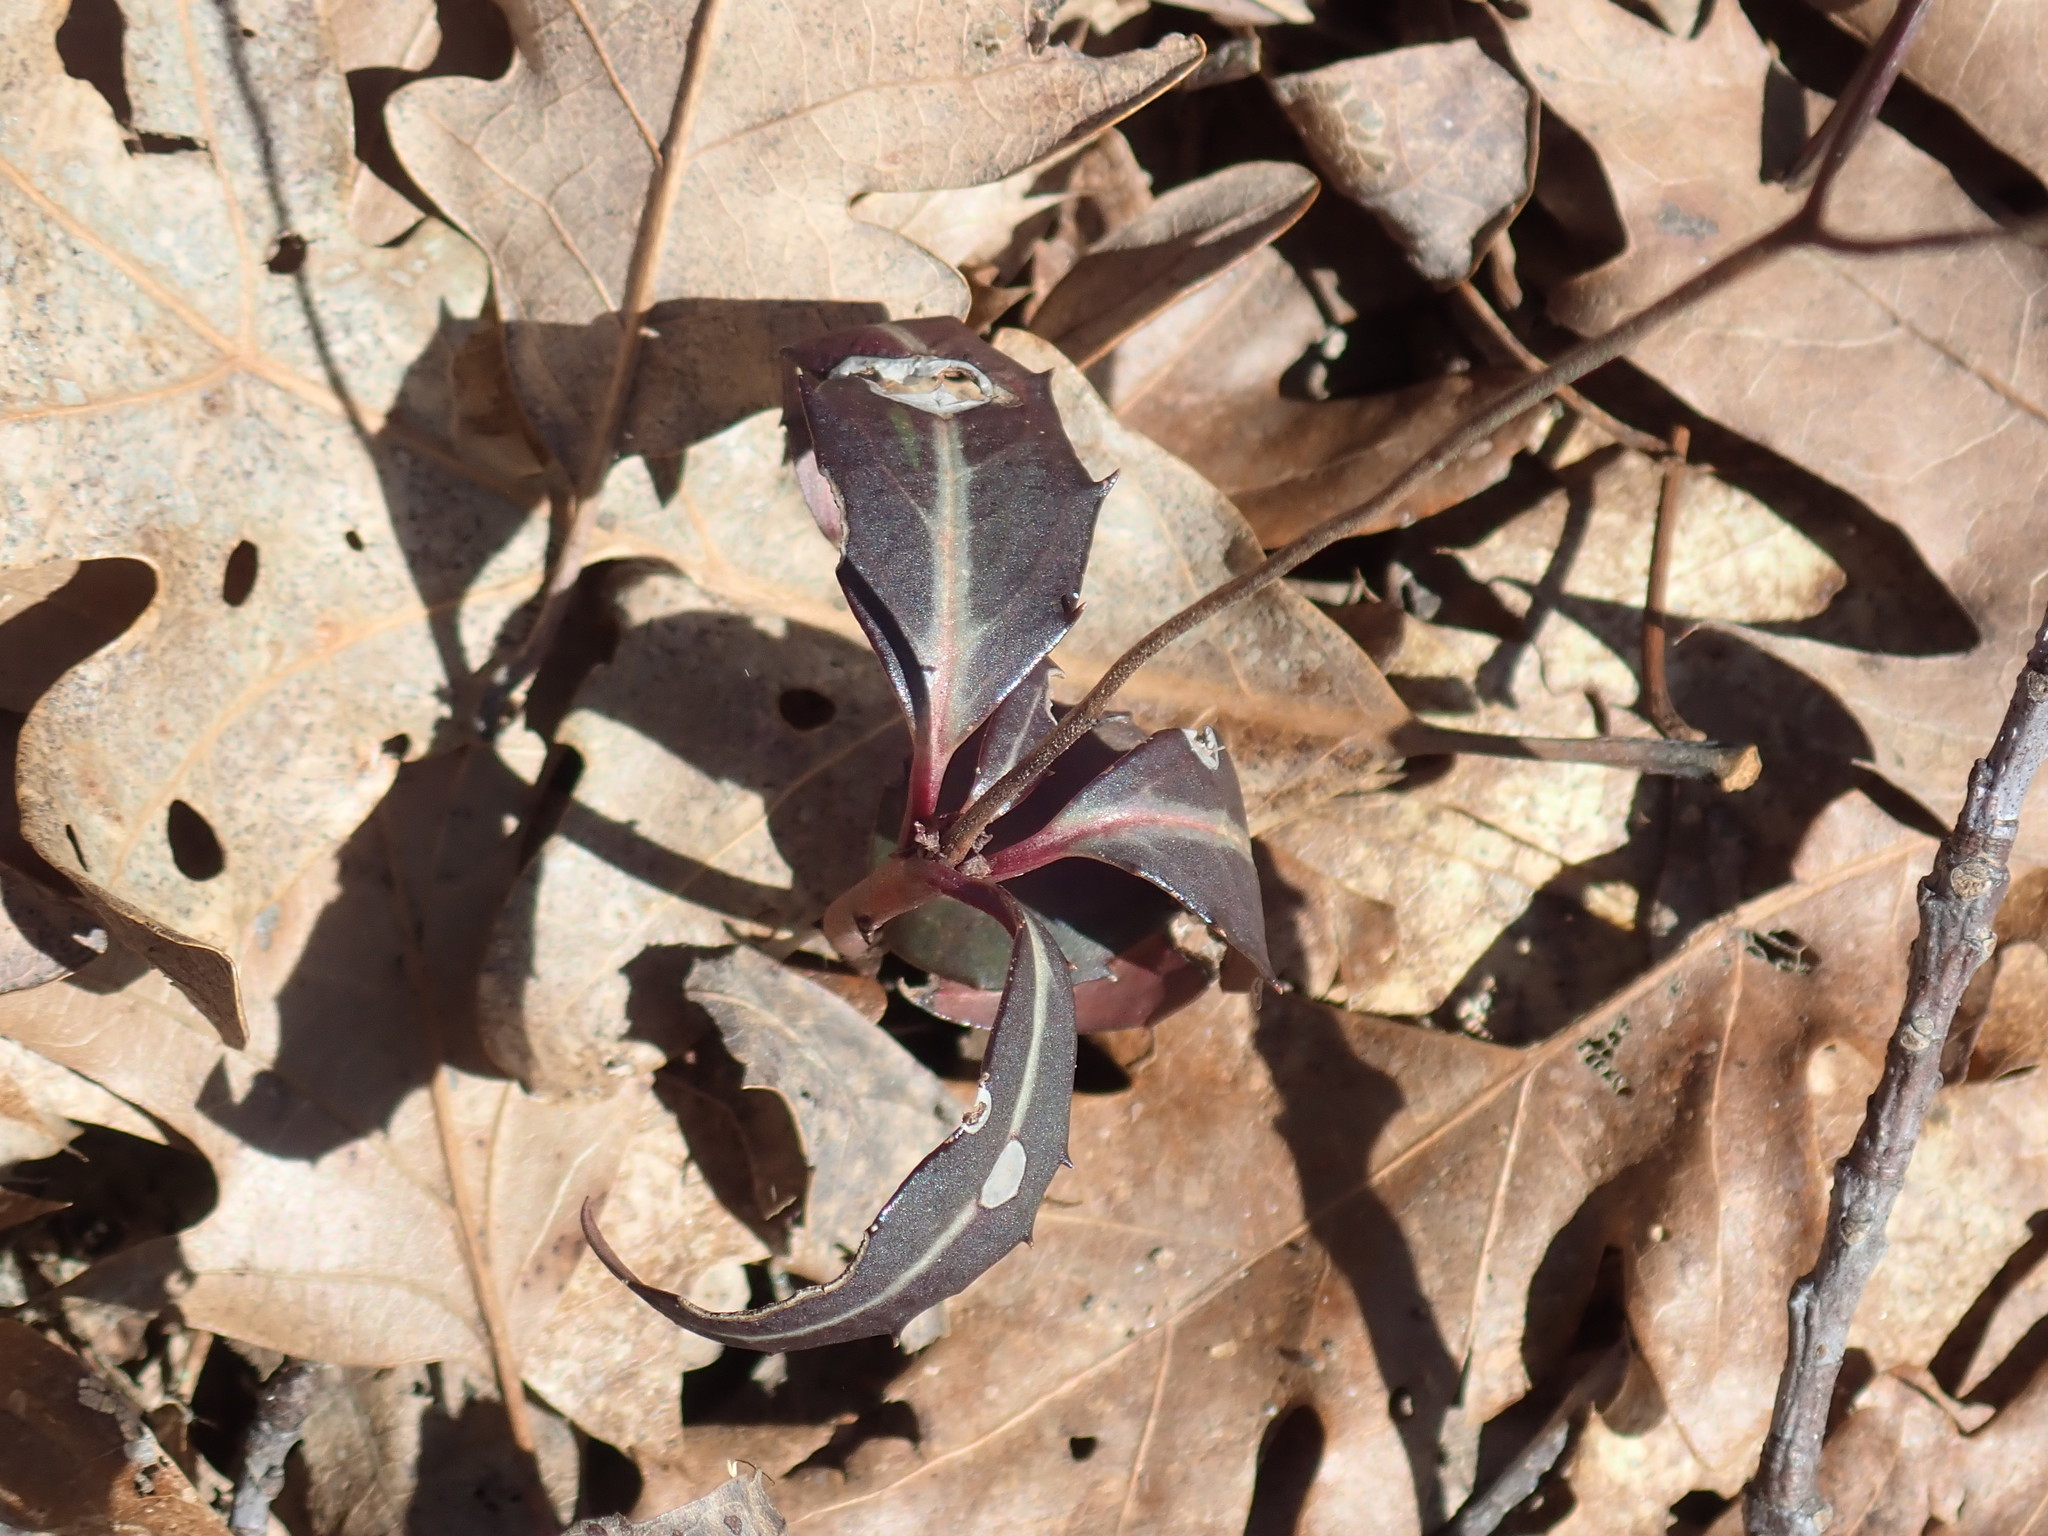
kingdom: Plantae
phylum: Tracheophyta
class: Magnoliopsida
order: Ericales
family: Ericaceae
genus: Chimaphila
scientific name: Chimaphila maculata
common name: Spotted pipsissewa
